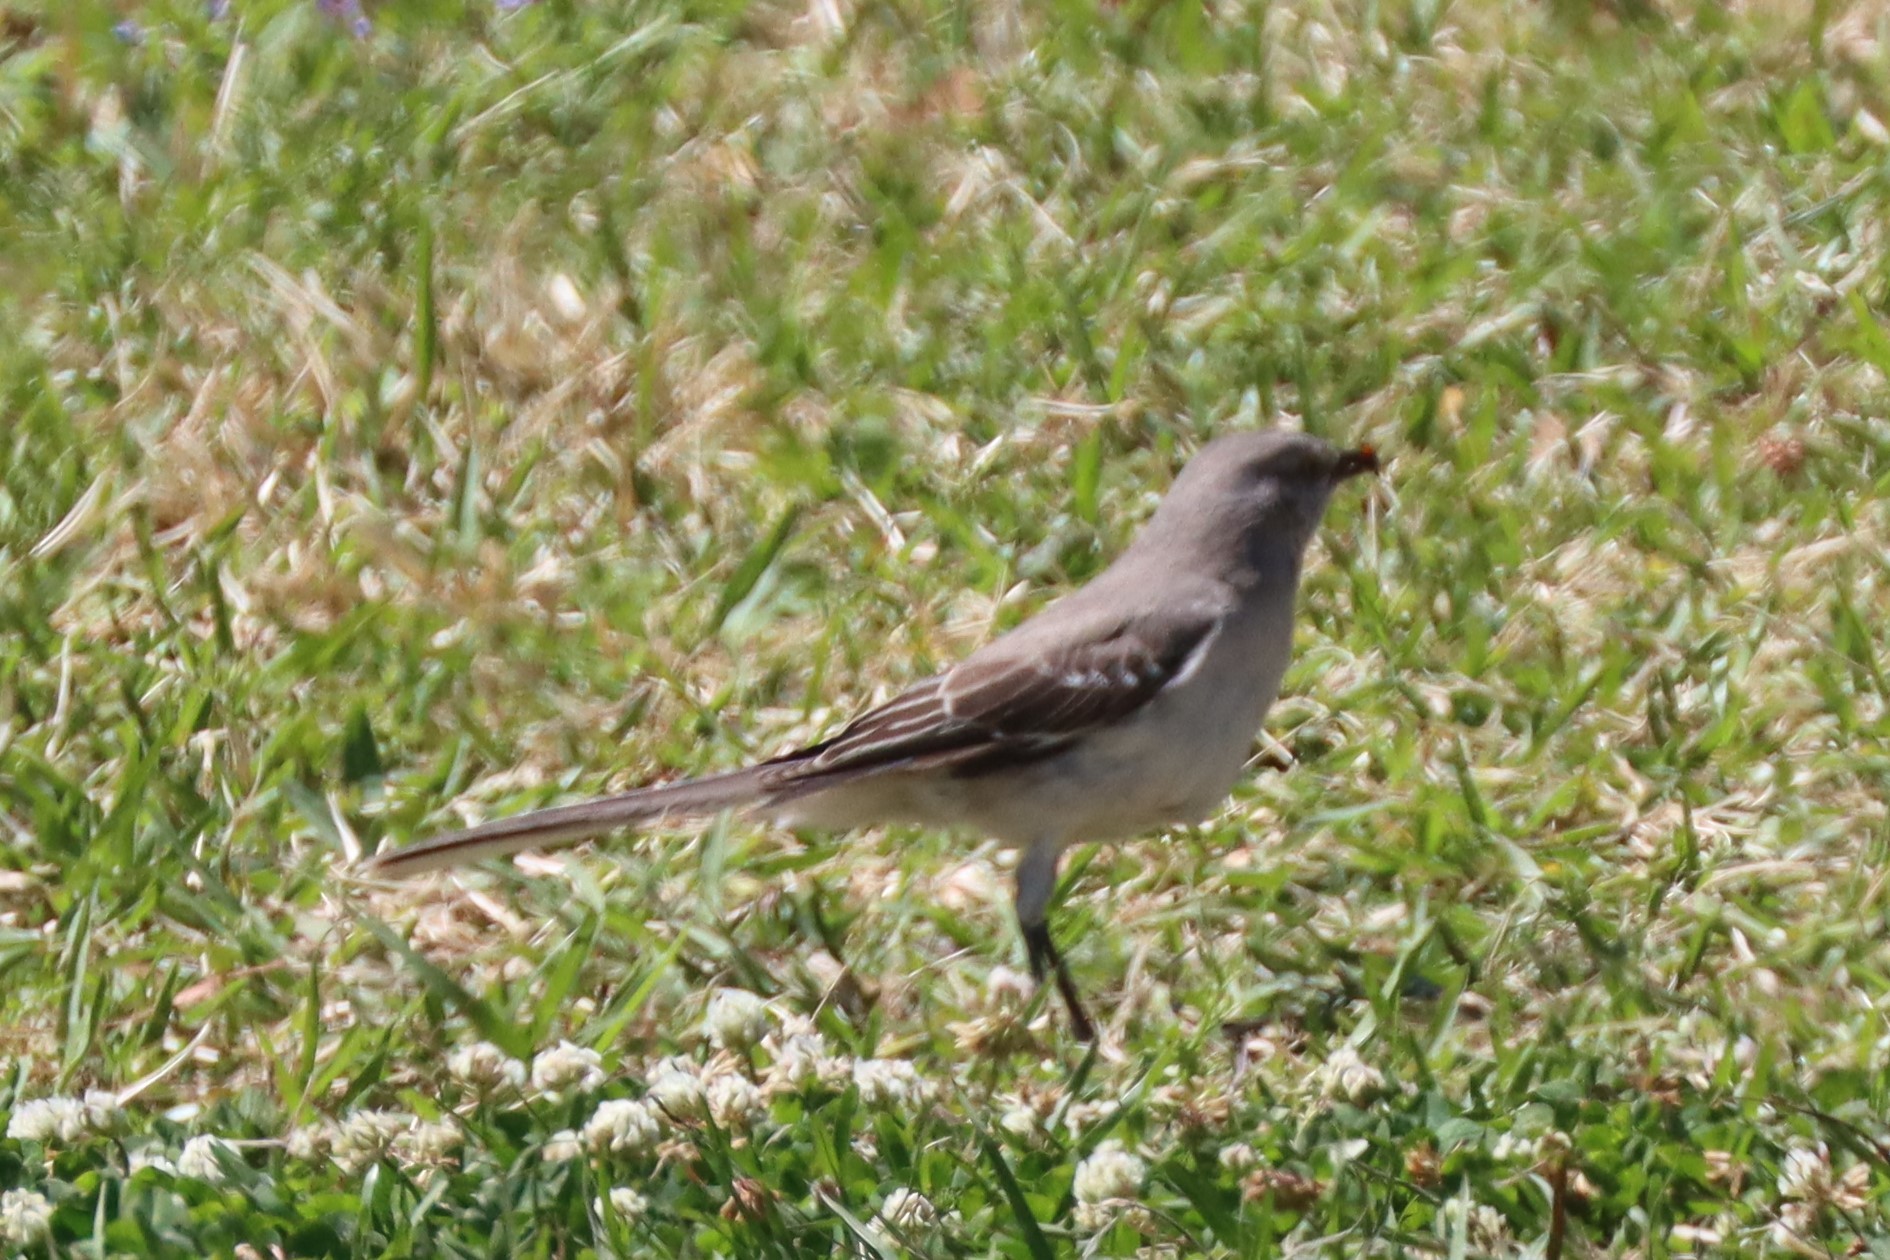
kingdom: Animalia
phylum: Chordata
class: Aves
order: Passeriformes
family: Mimidae
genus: Mimus
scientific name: Mimus polyglottos
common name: Northern mockingbird
